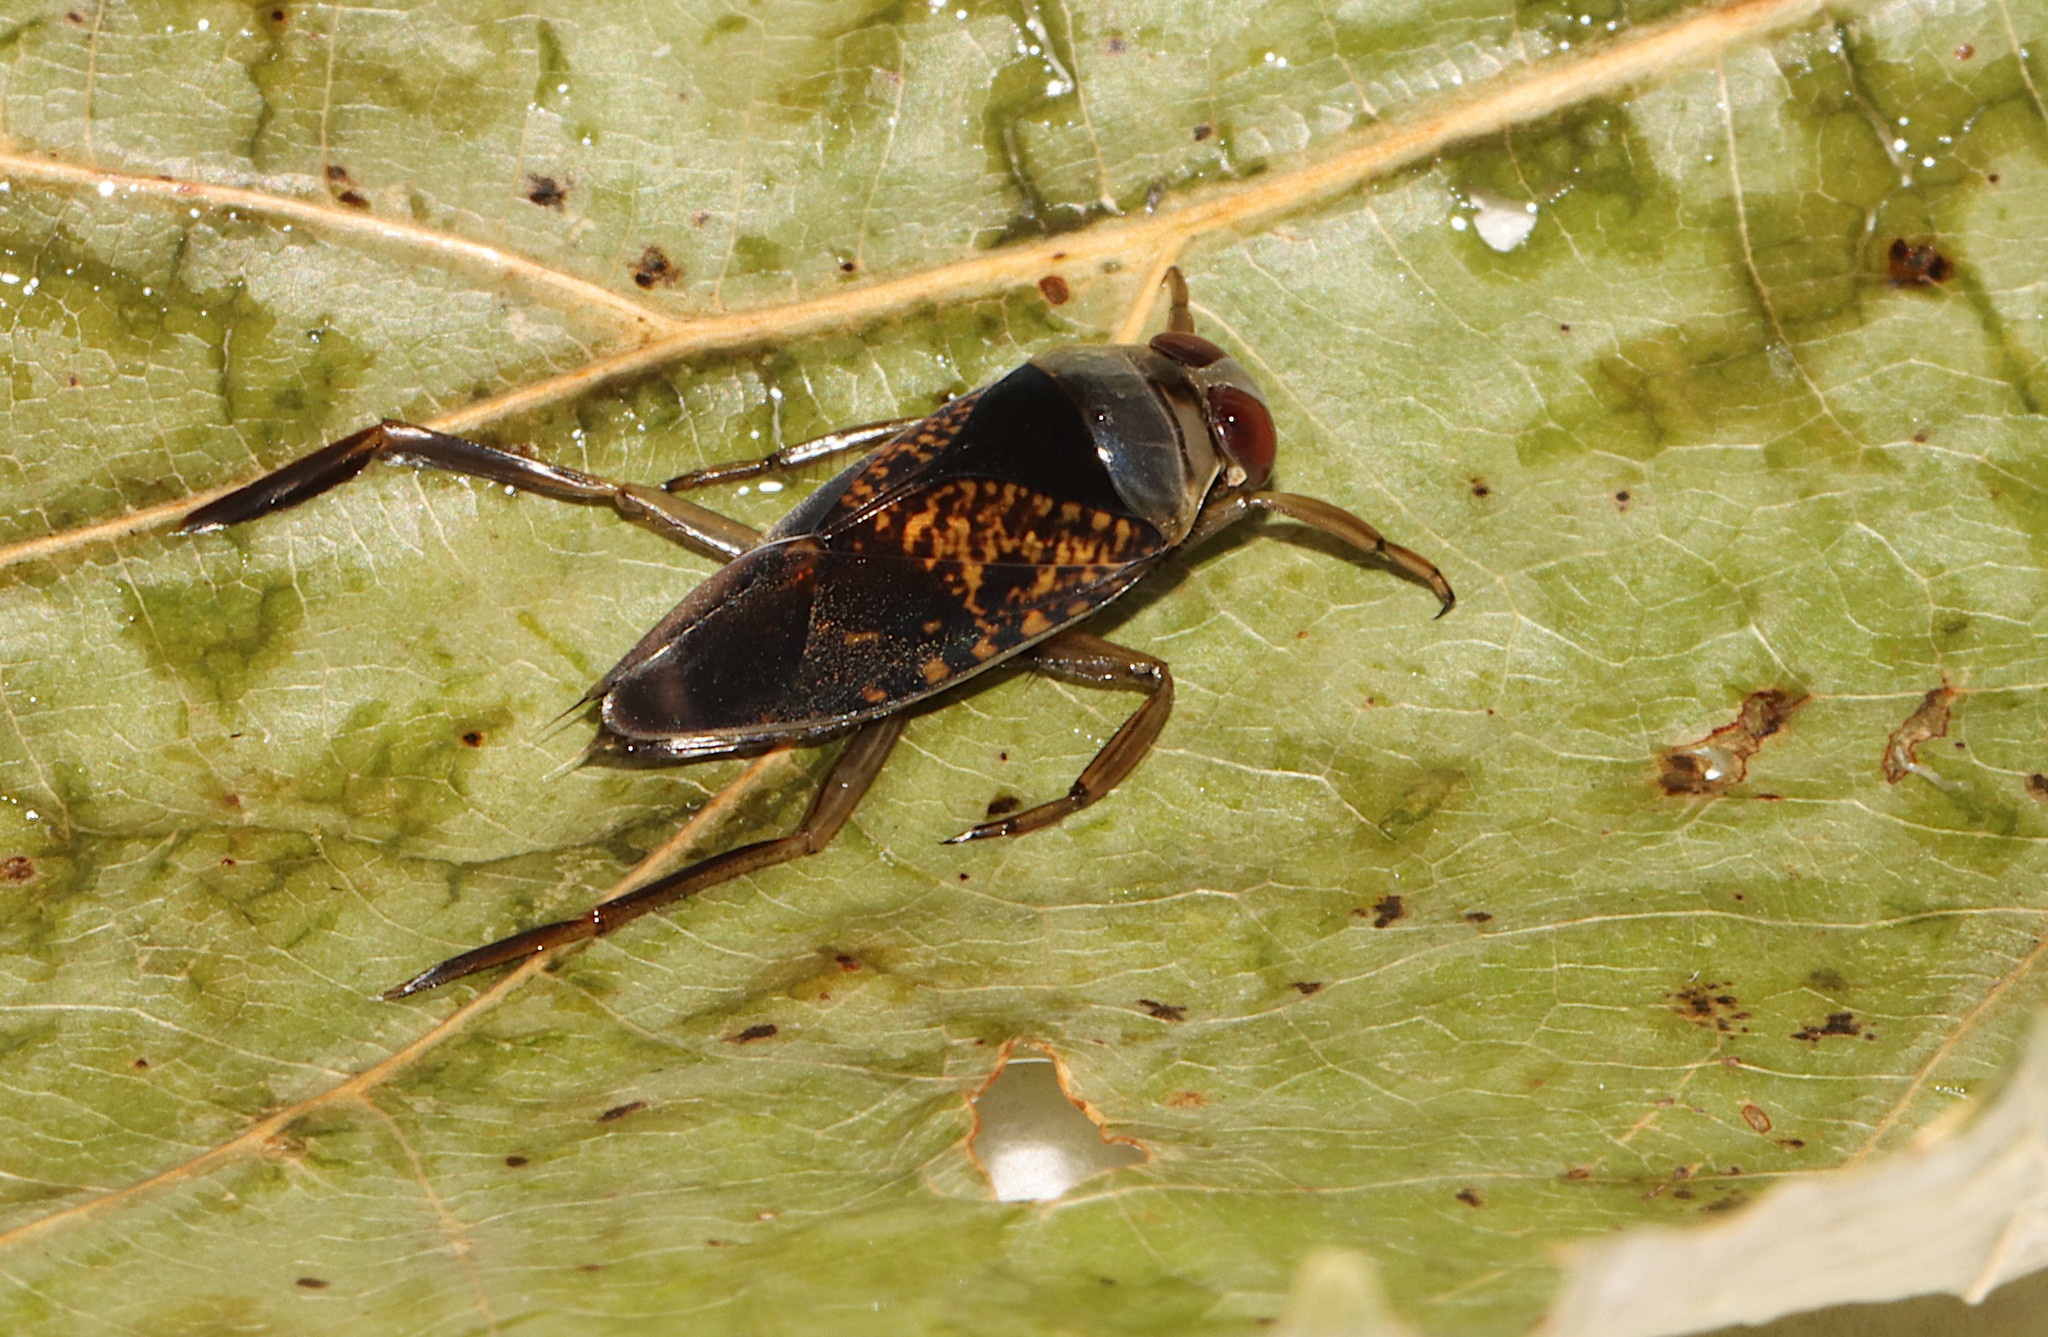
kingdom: Animalia
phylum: Arthropoda
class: Insecta
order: Hemiptera
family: Notonectidae
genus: Notonecta
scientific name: Notonecta irrorata
